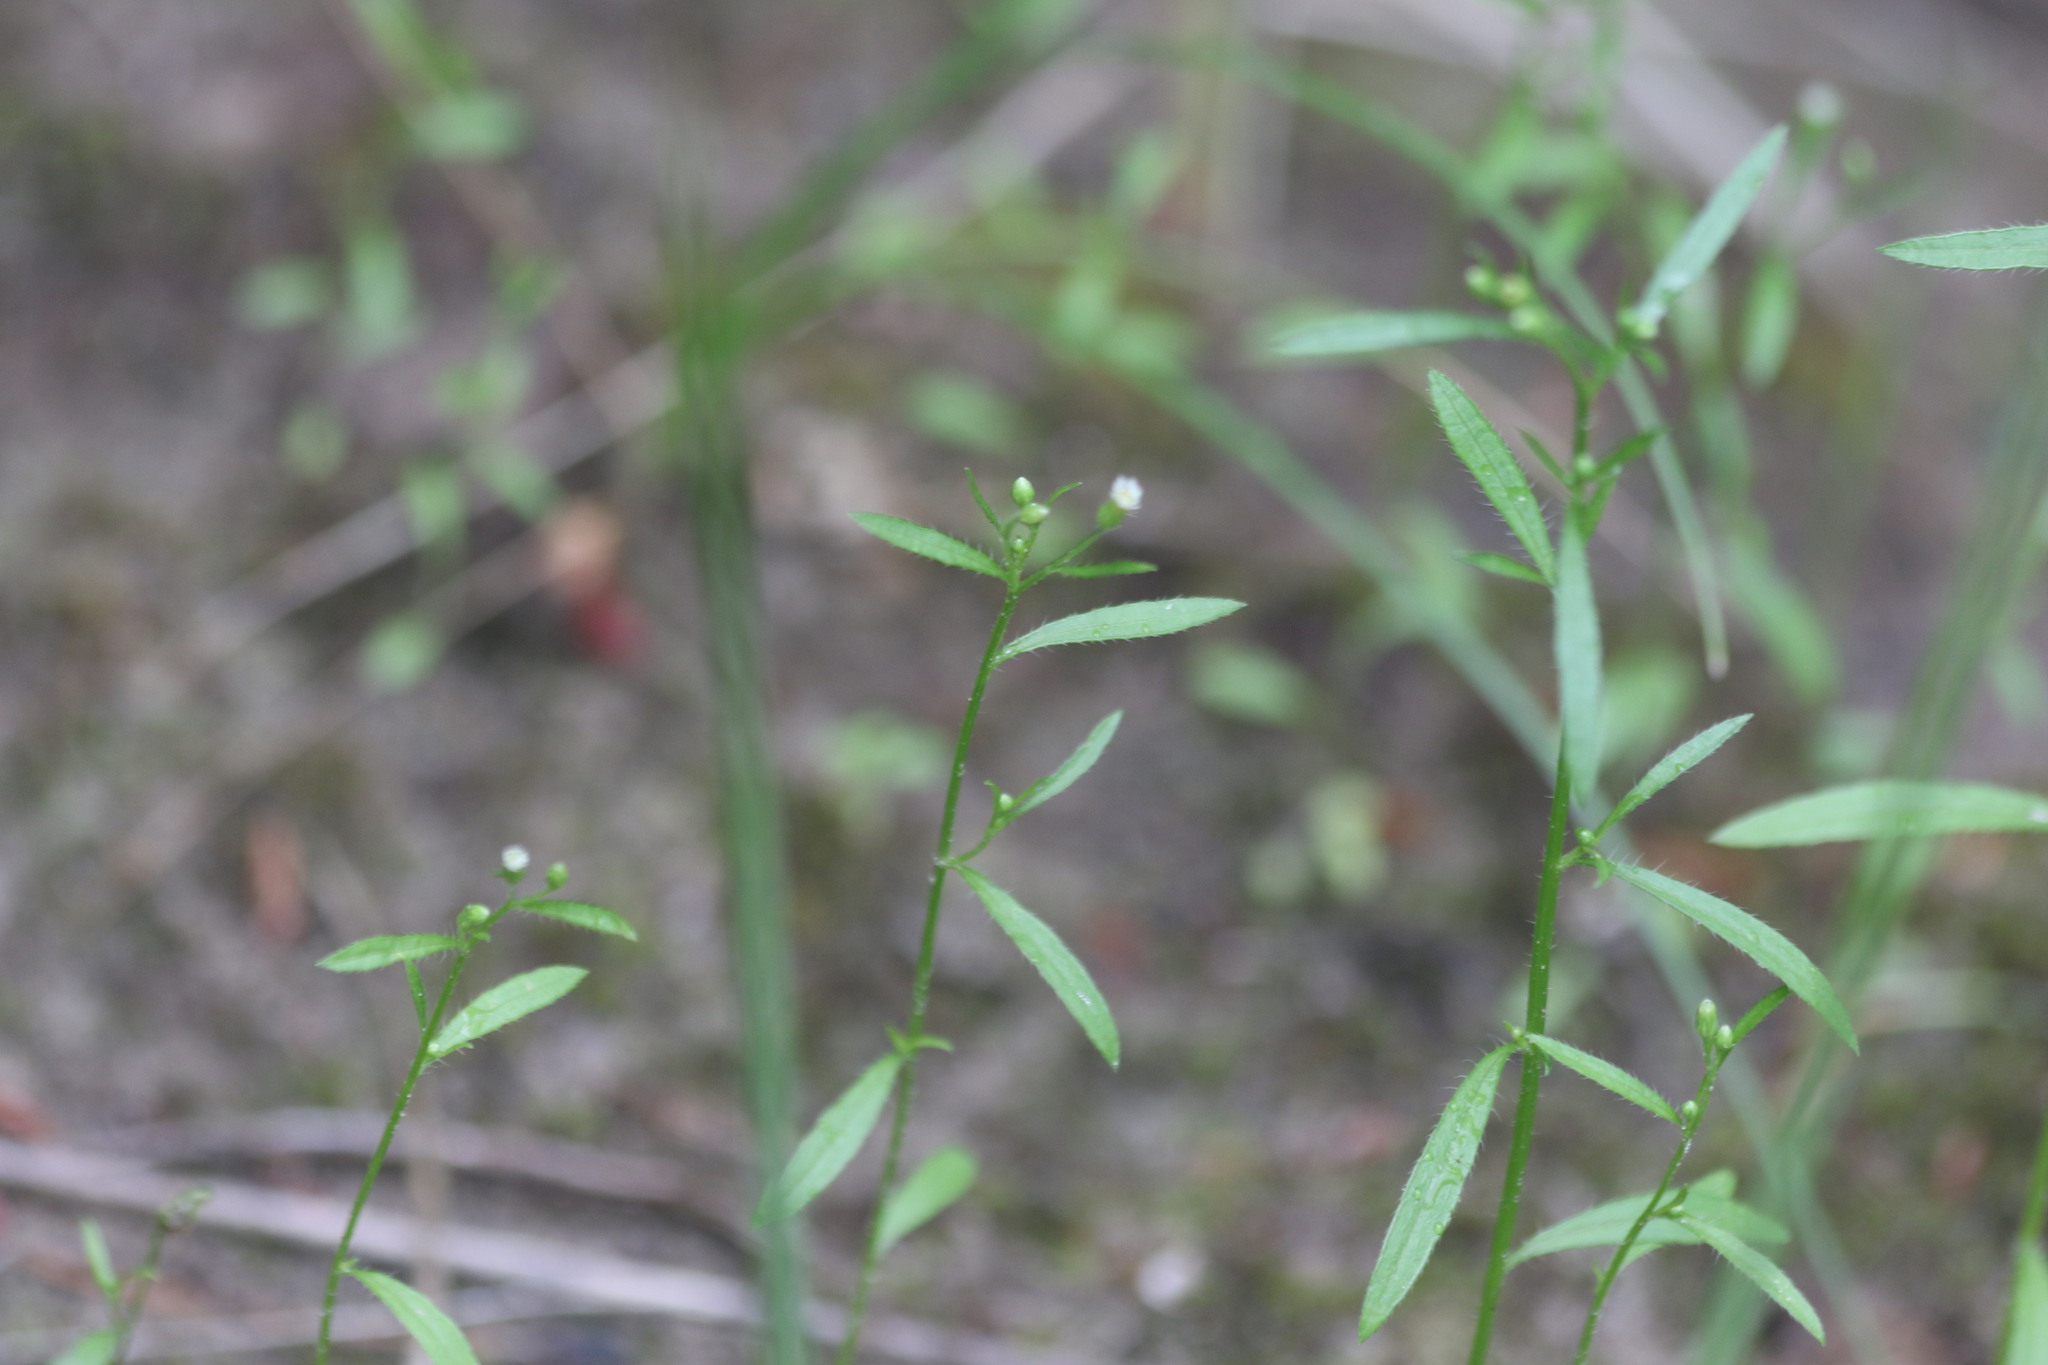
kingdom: Plantae
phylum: Tracheophyta
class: Magnoliopsida
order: Asterales
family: Asteraceae
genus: Erigeron
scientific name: Erigeron canadensis
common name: Canadian fleabane
